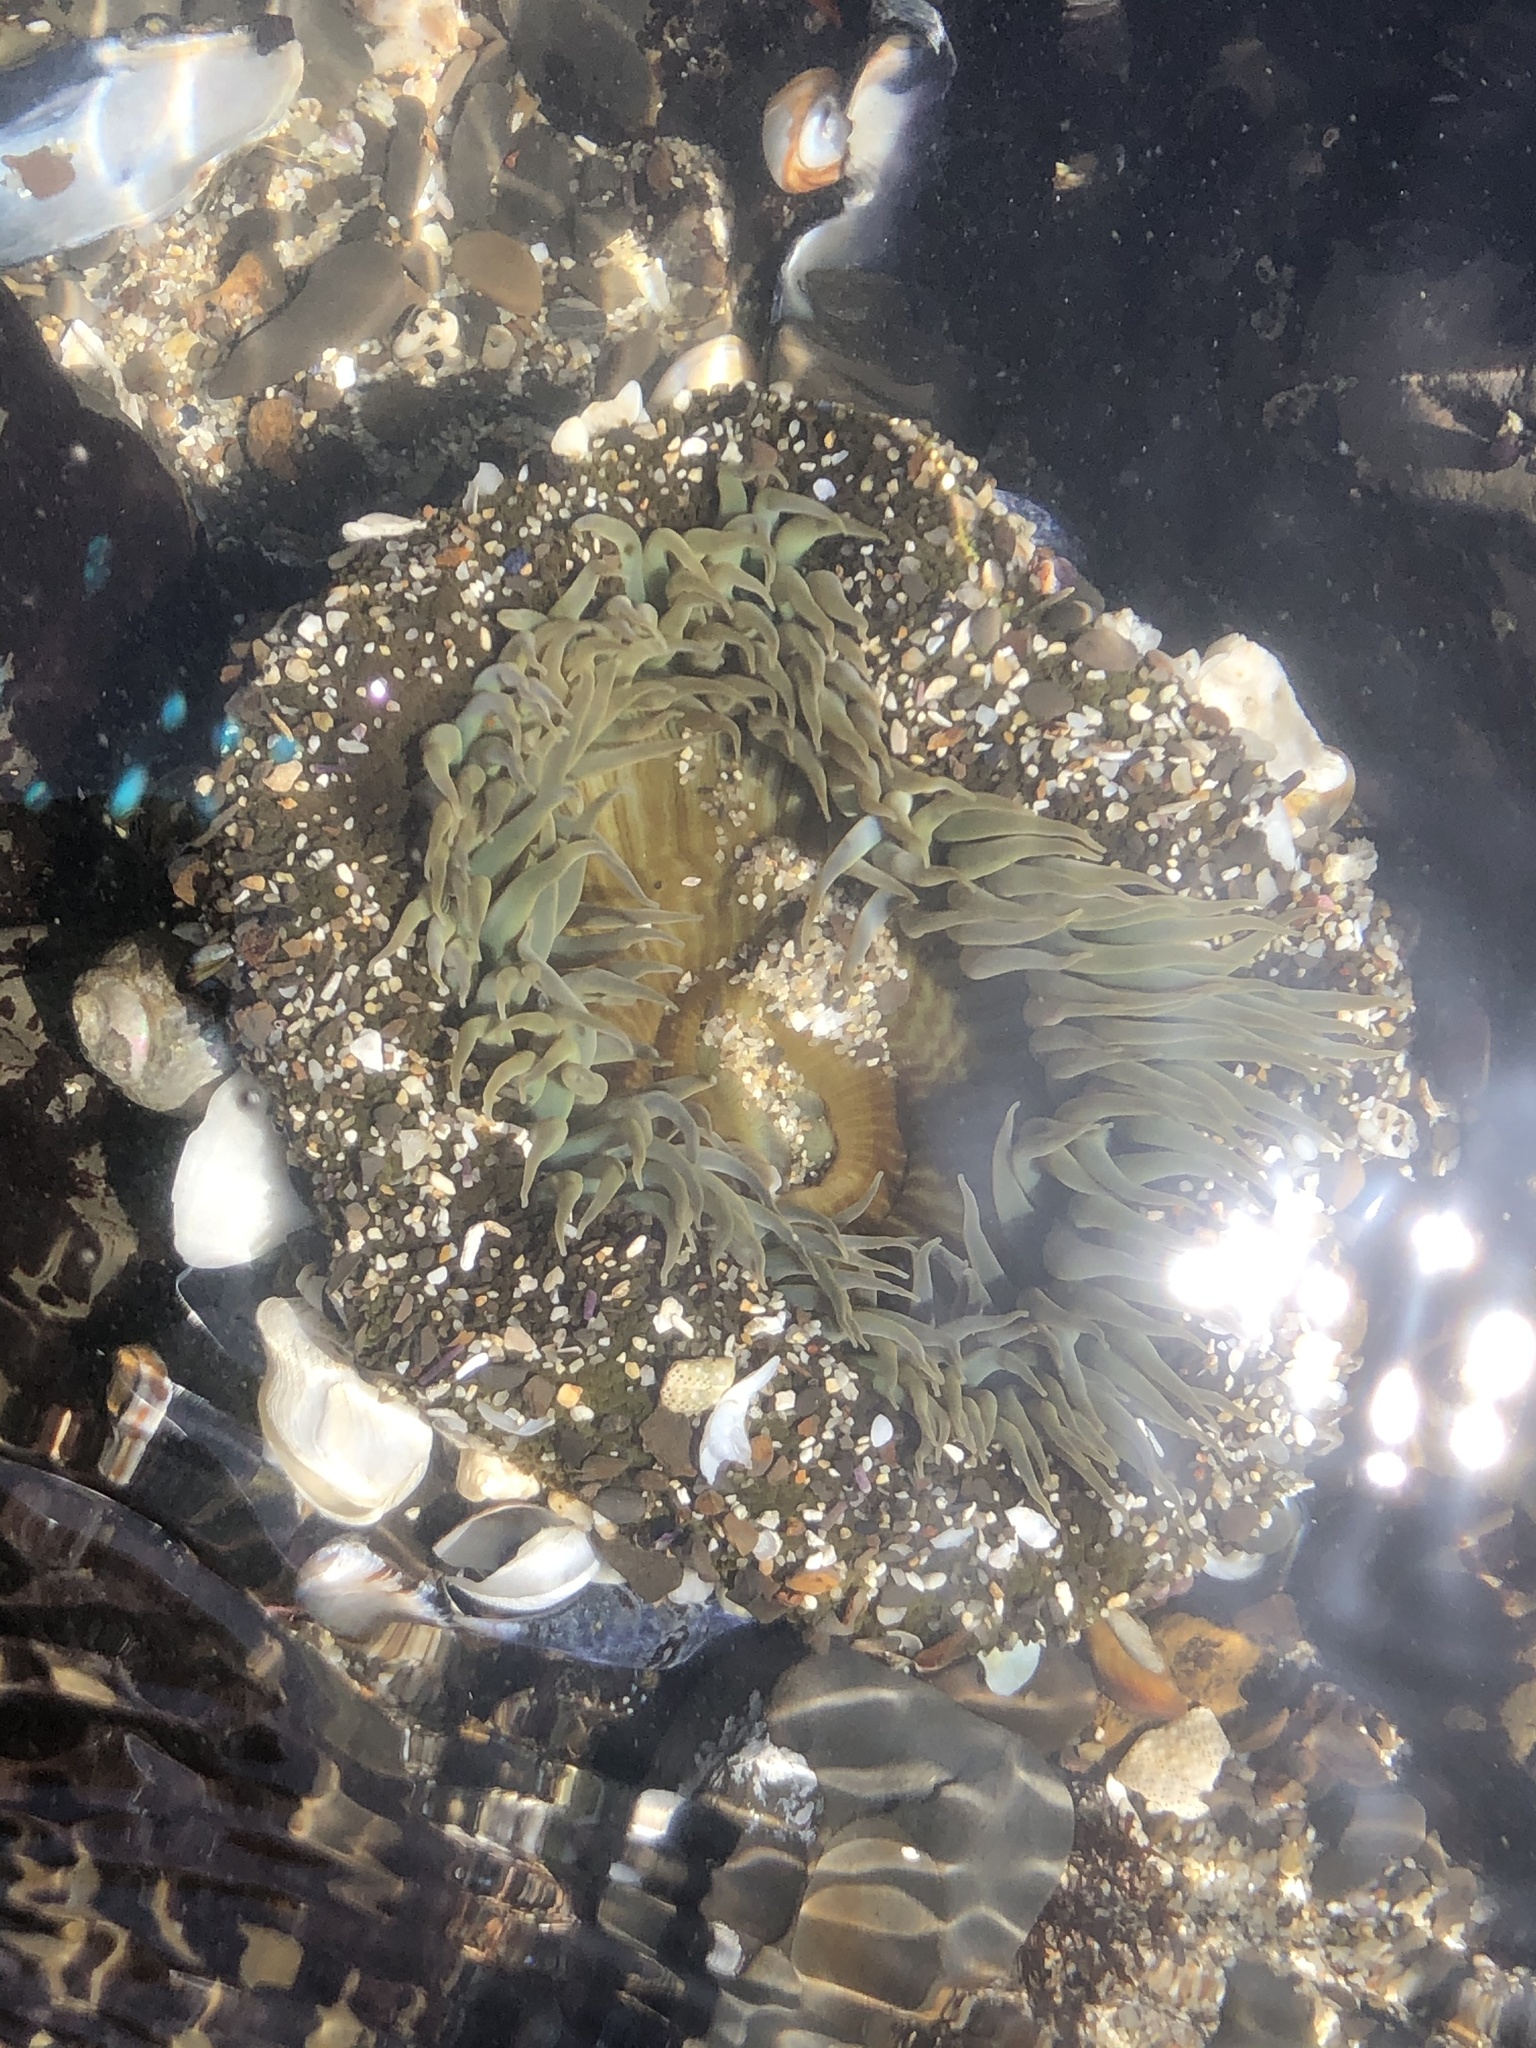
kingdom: Animalia
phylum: Cnidaria
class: Anthozoa
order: Actiniaria
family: Actiniidae
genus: Anthopleura
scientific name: Anthopleura sola
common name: Sun anemone
